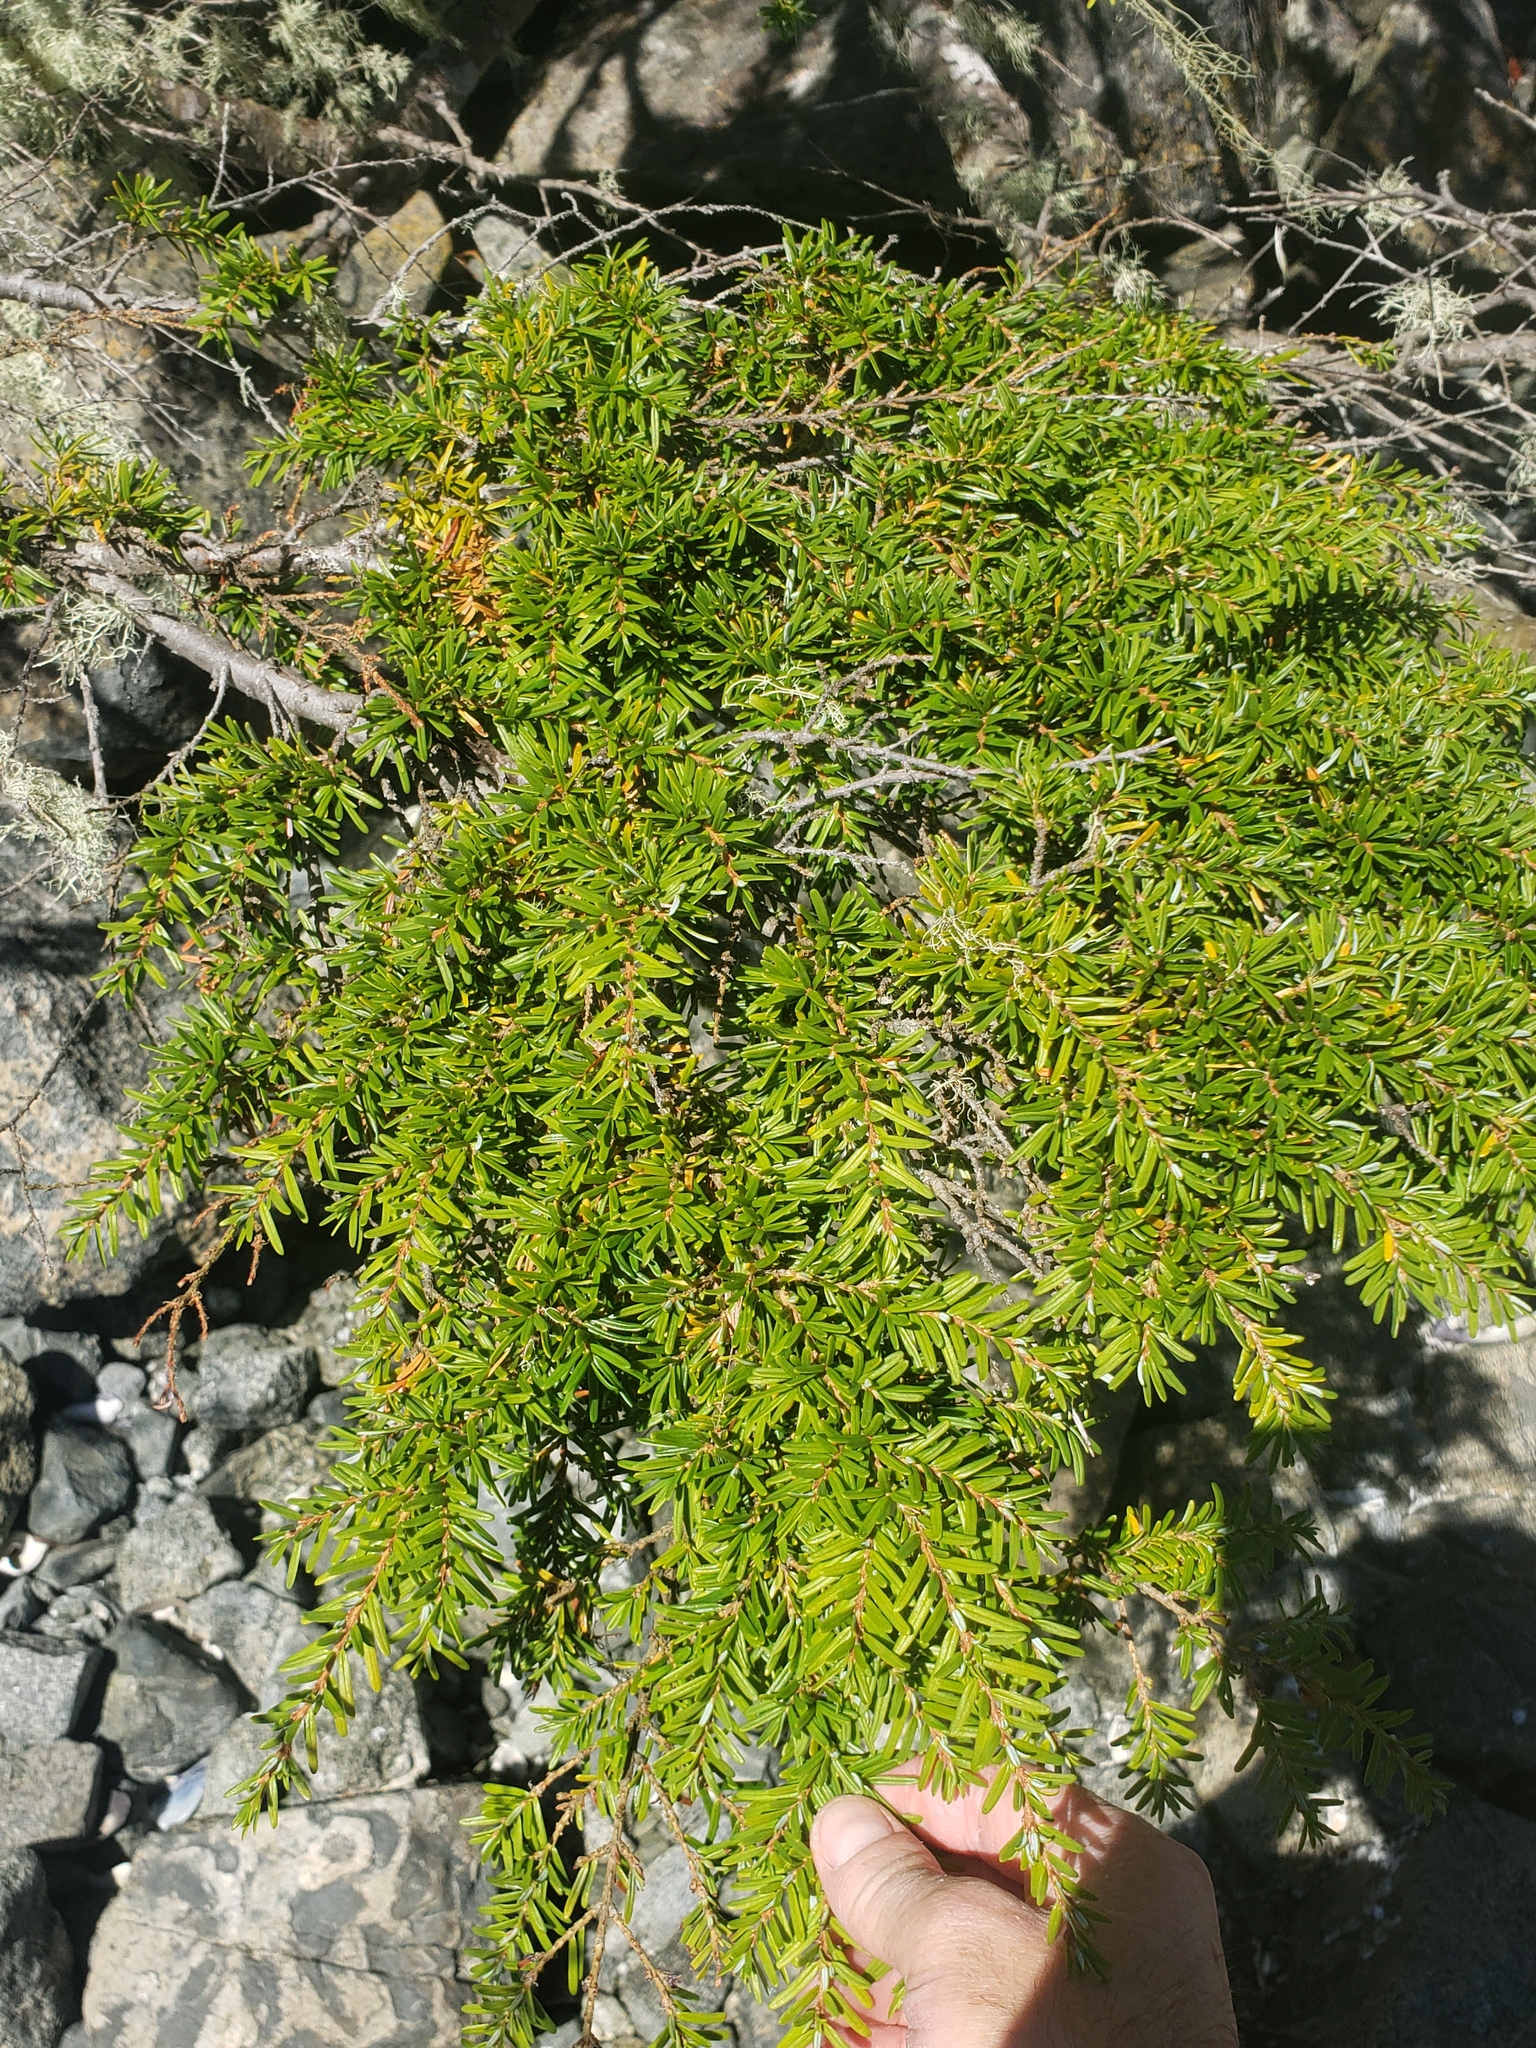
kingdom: Plantae
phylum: Tracheophyta
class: Pinopsida
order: Pinales
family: Pinaceae
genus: Tsuga
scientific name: Tsuga heterophylla
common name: Western hemlock
